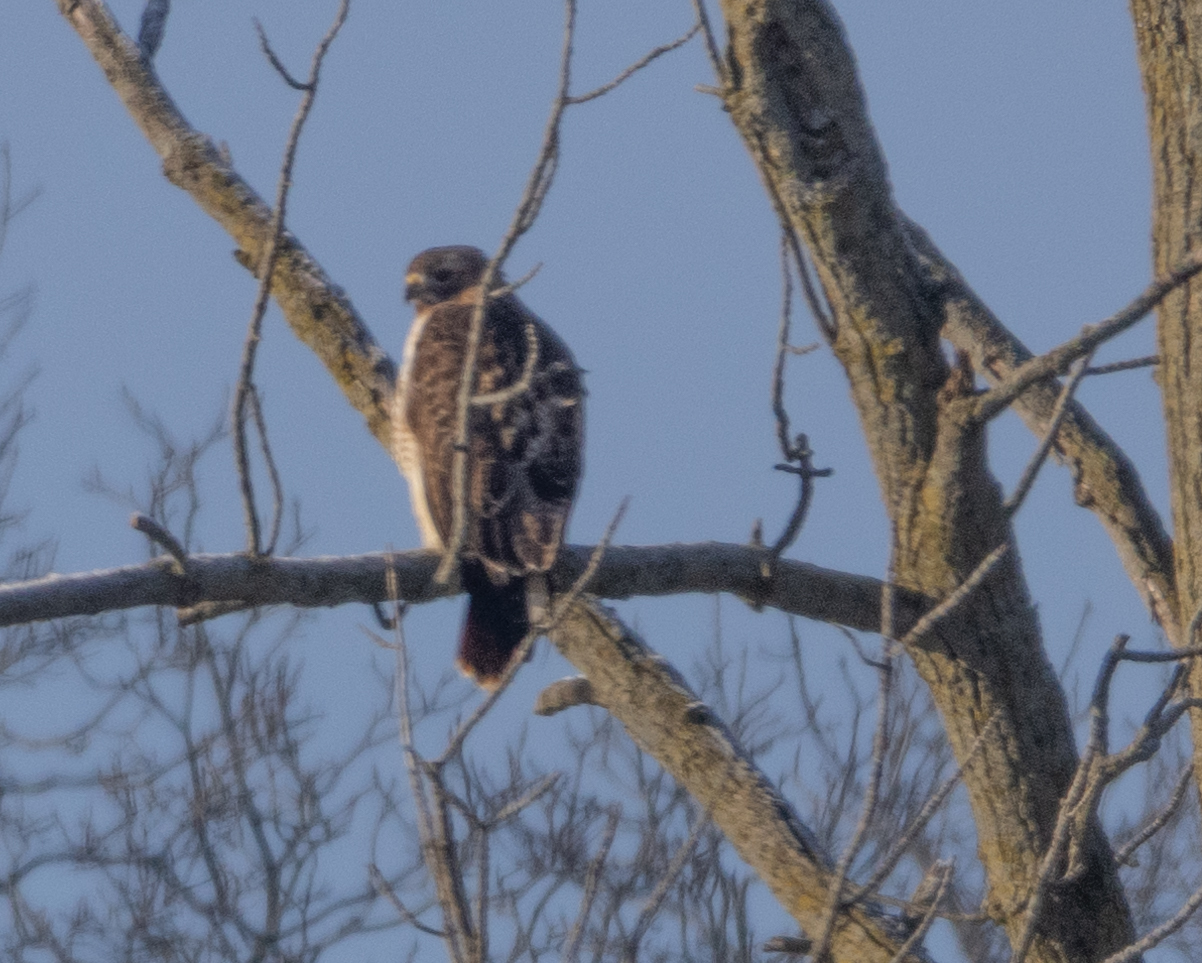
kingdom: Animalia
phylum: Chordata
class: Aves
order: Accipitriformes
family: Accipitridae
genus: Buteo
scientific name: Buteo jamaicensis
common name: Red-tailed hawk
